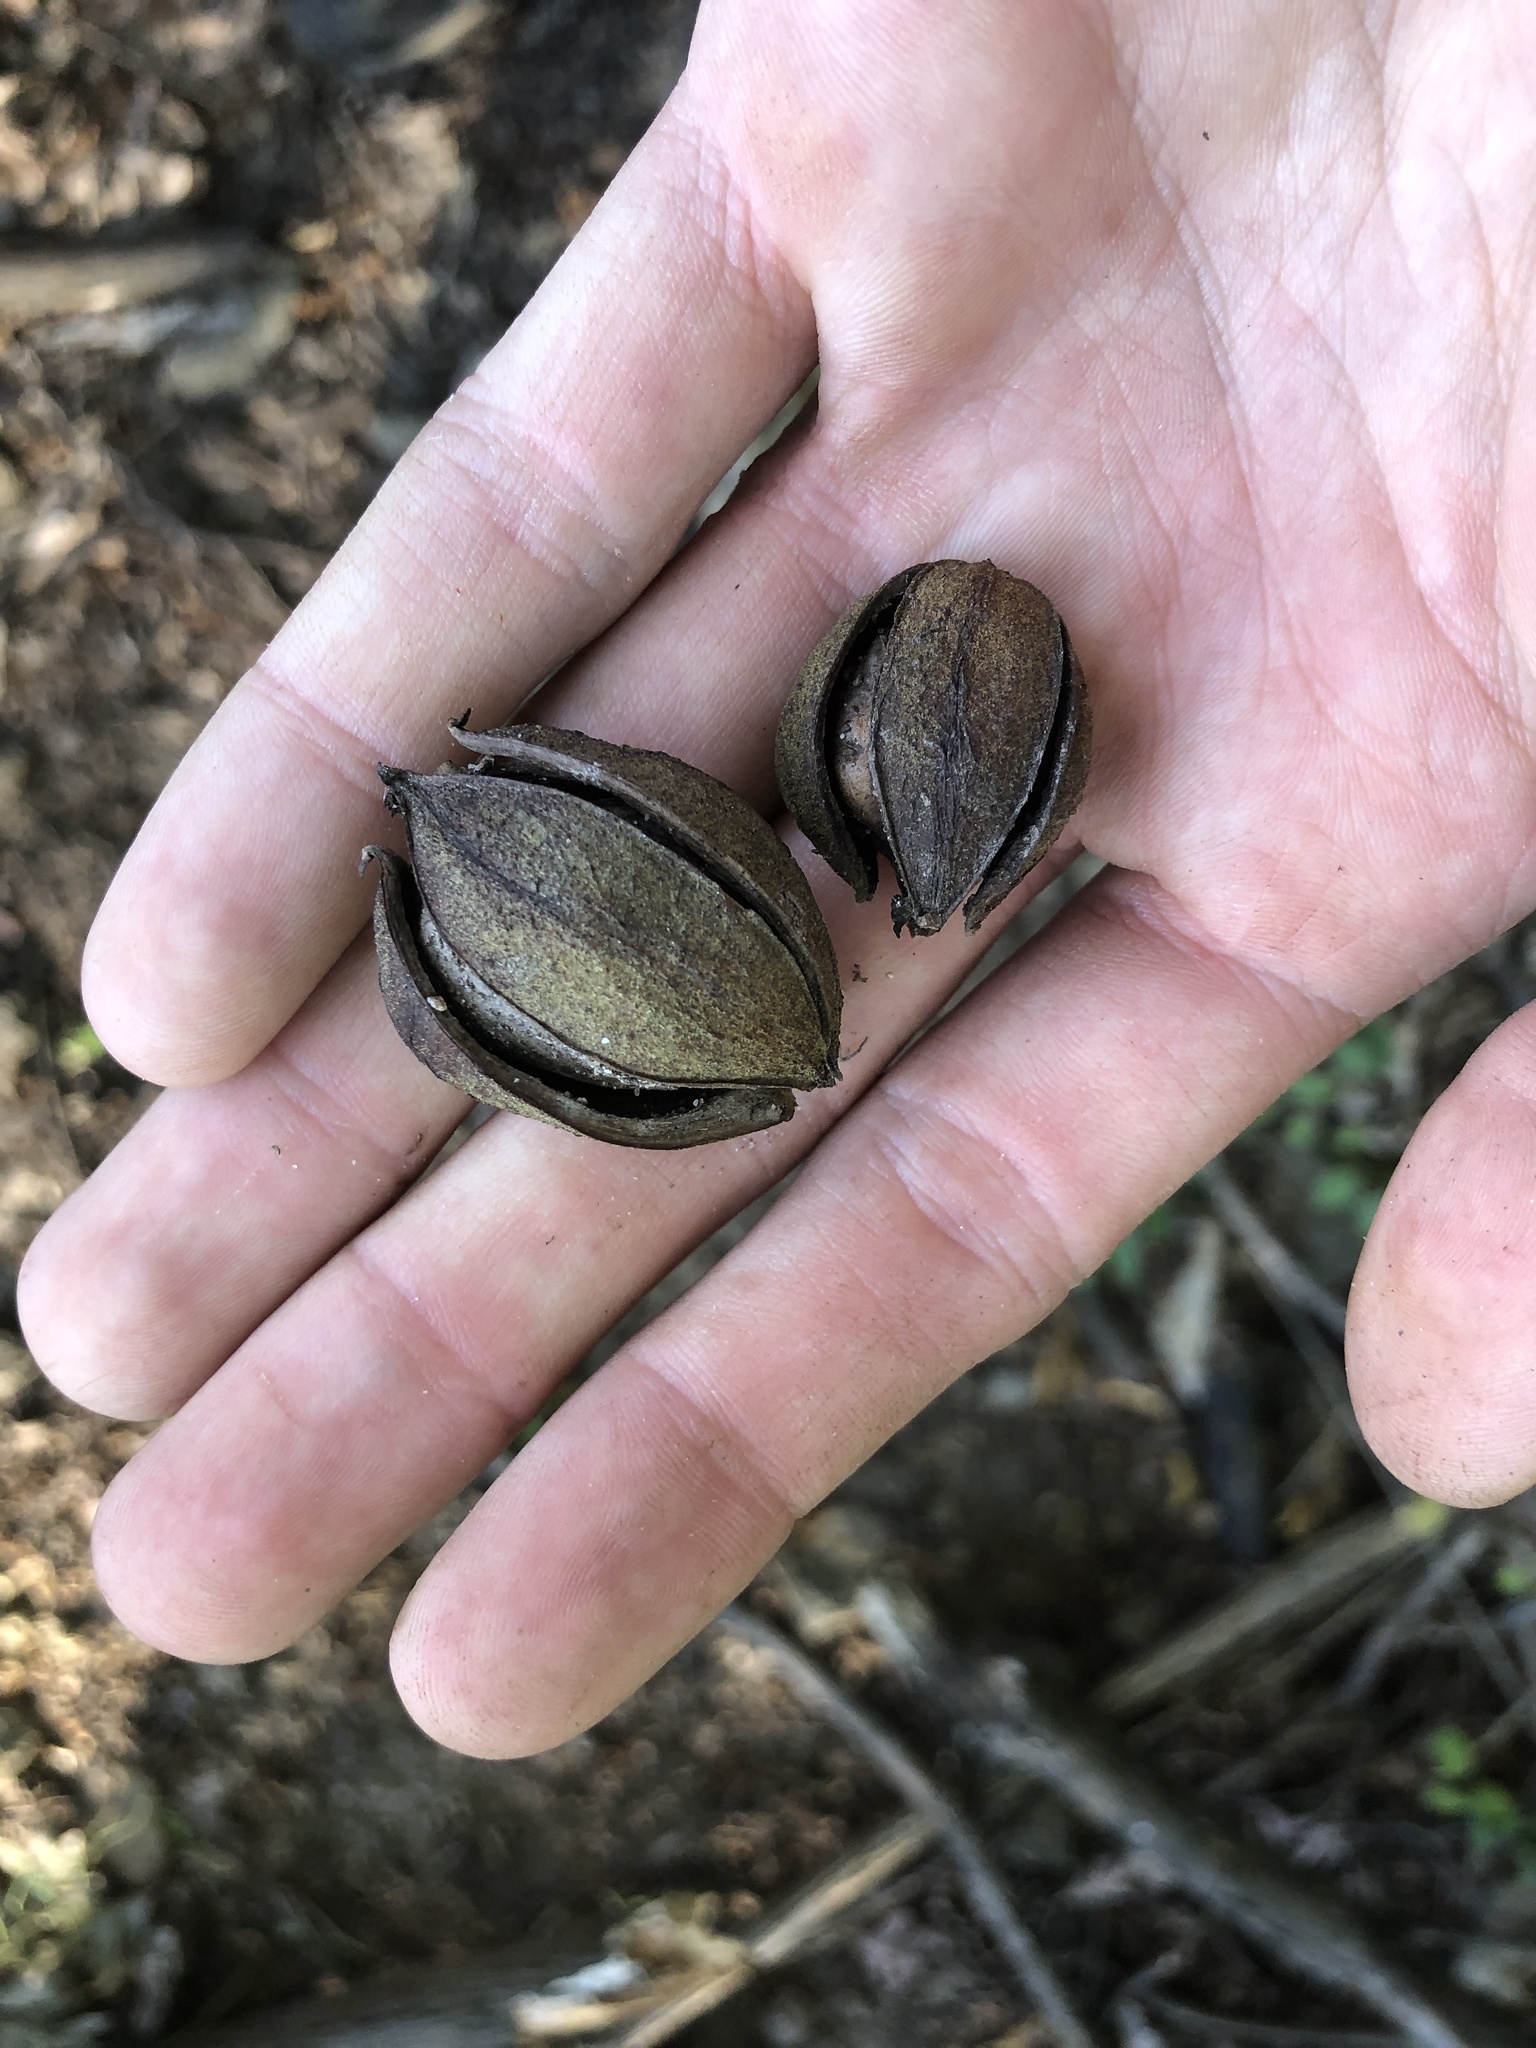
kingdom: Plantae
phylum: Tracheophyta
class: Magnoliopsida
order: Fagales
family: Juglandaceae
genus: Carya
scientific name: Carya glabra
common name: Pignut hickory
